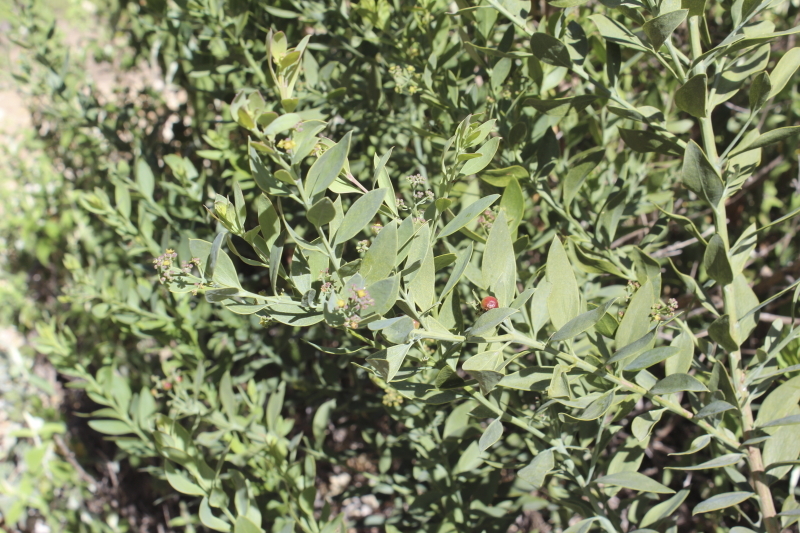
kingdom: Plantae
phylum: Tracheophyta
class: Magnoliopsida
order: Santalales
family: Santalaceae
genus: Osyris
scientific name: Osyris compressa
